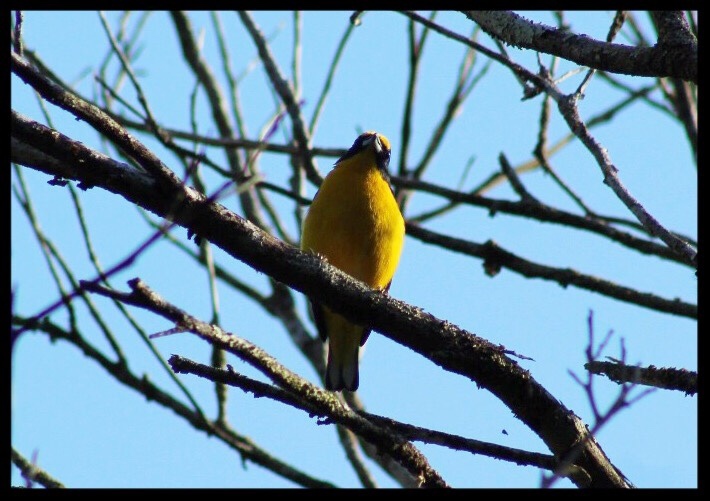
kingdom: Animalia
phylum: Chordata
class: Aves
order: Passeriformes
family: Fringillidae
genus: Euphonia
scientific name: Euphonia hirundinacea
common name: Yellow-throated euphonia
